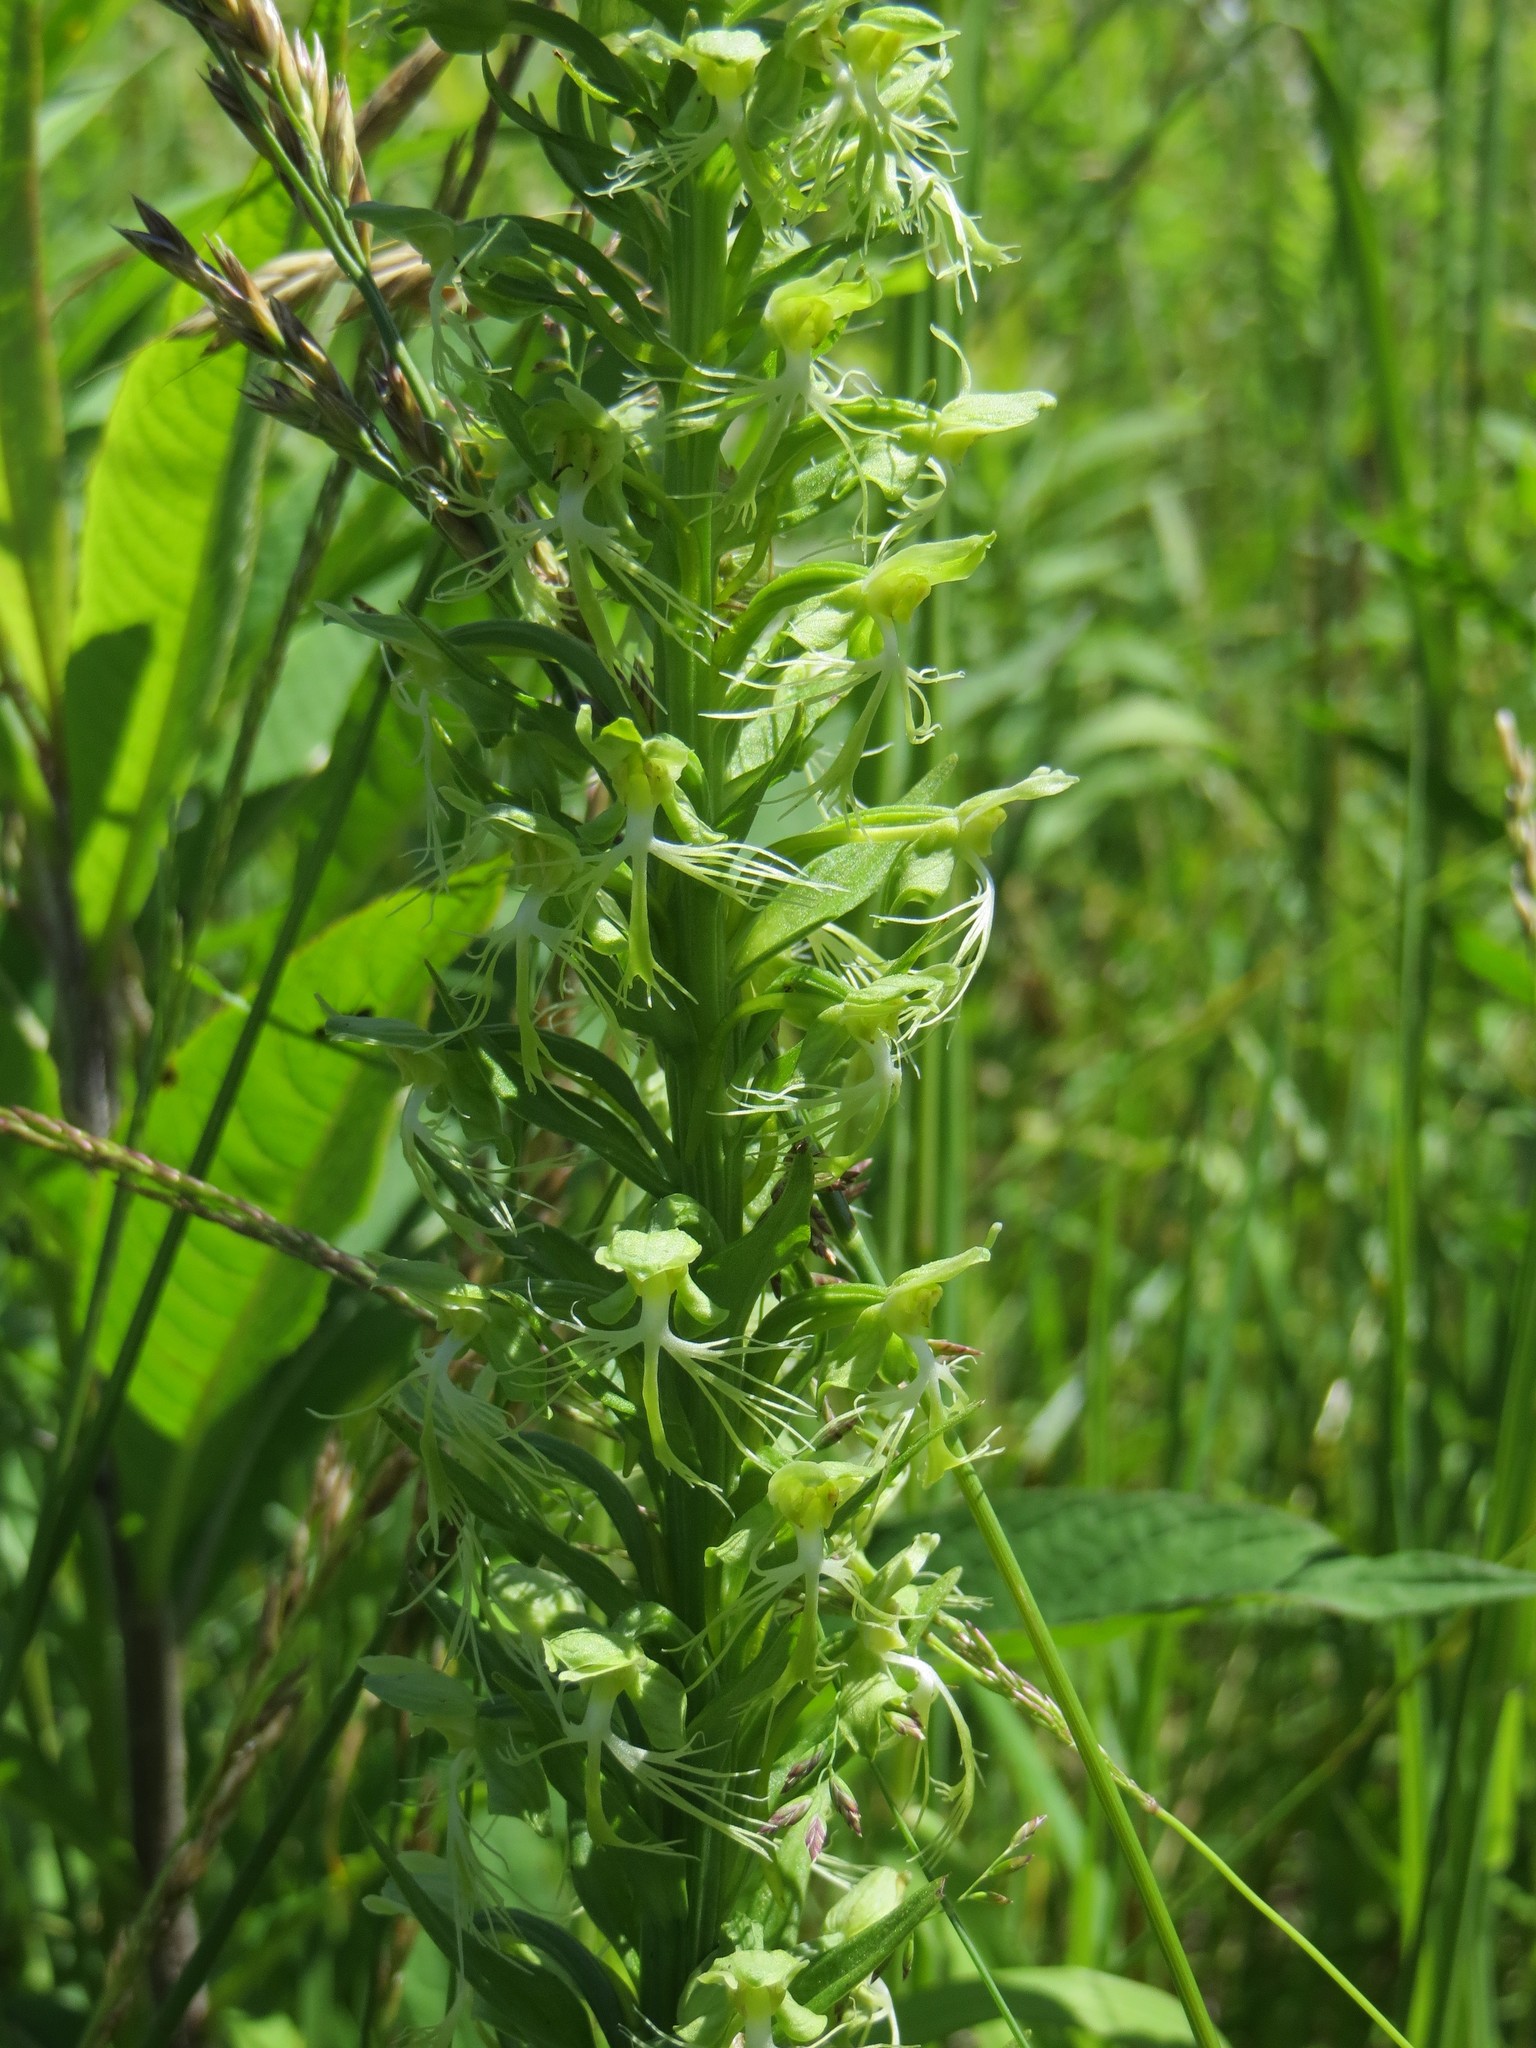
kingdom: Plantae
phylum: Tracheophyta
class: Liliopsida
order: Asparagales
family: Orchidaceae
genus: Platanthera
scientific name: Platanthera lacera
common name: Green fringed orchid
